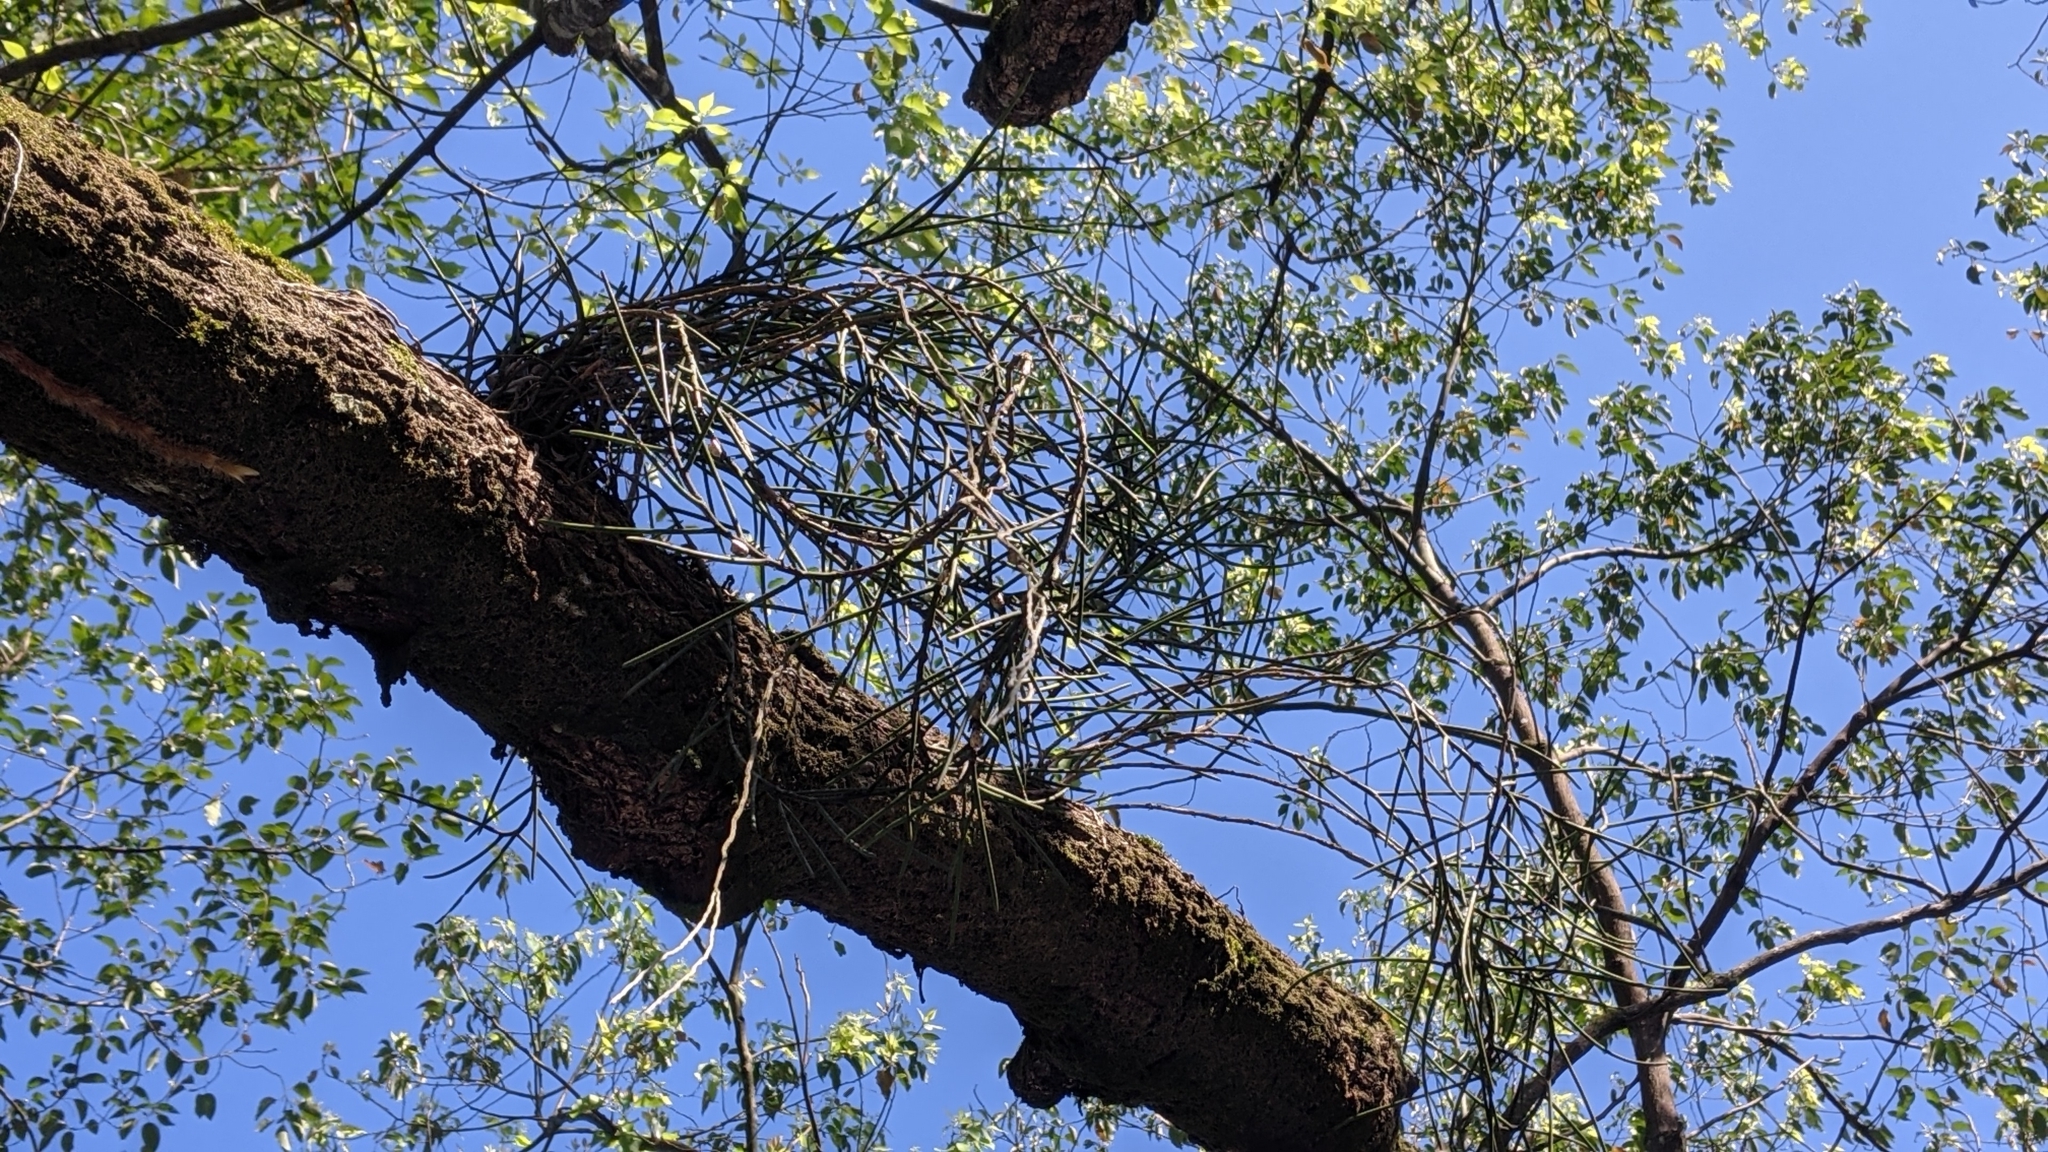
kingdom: Plantae
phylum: Tracheophyta
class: Liliopsida
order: Asparagales
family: Orchidaceae
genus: Luisia
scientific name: Luisia teres
